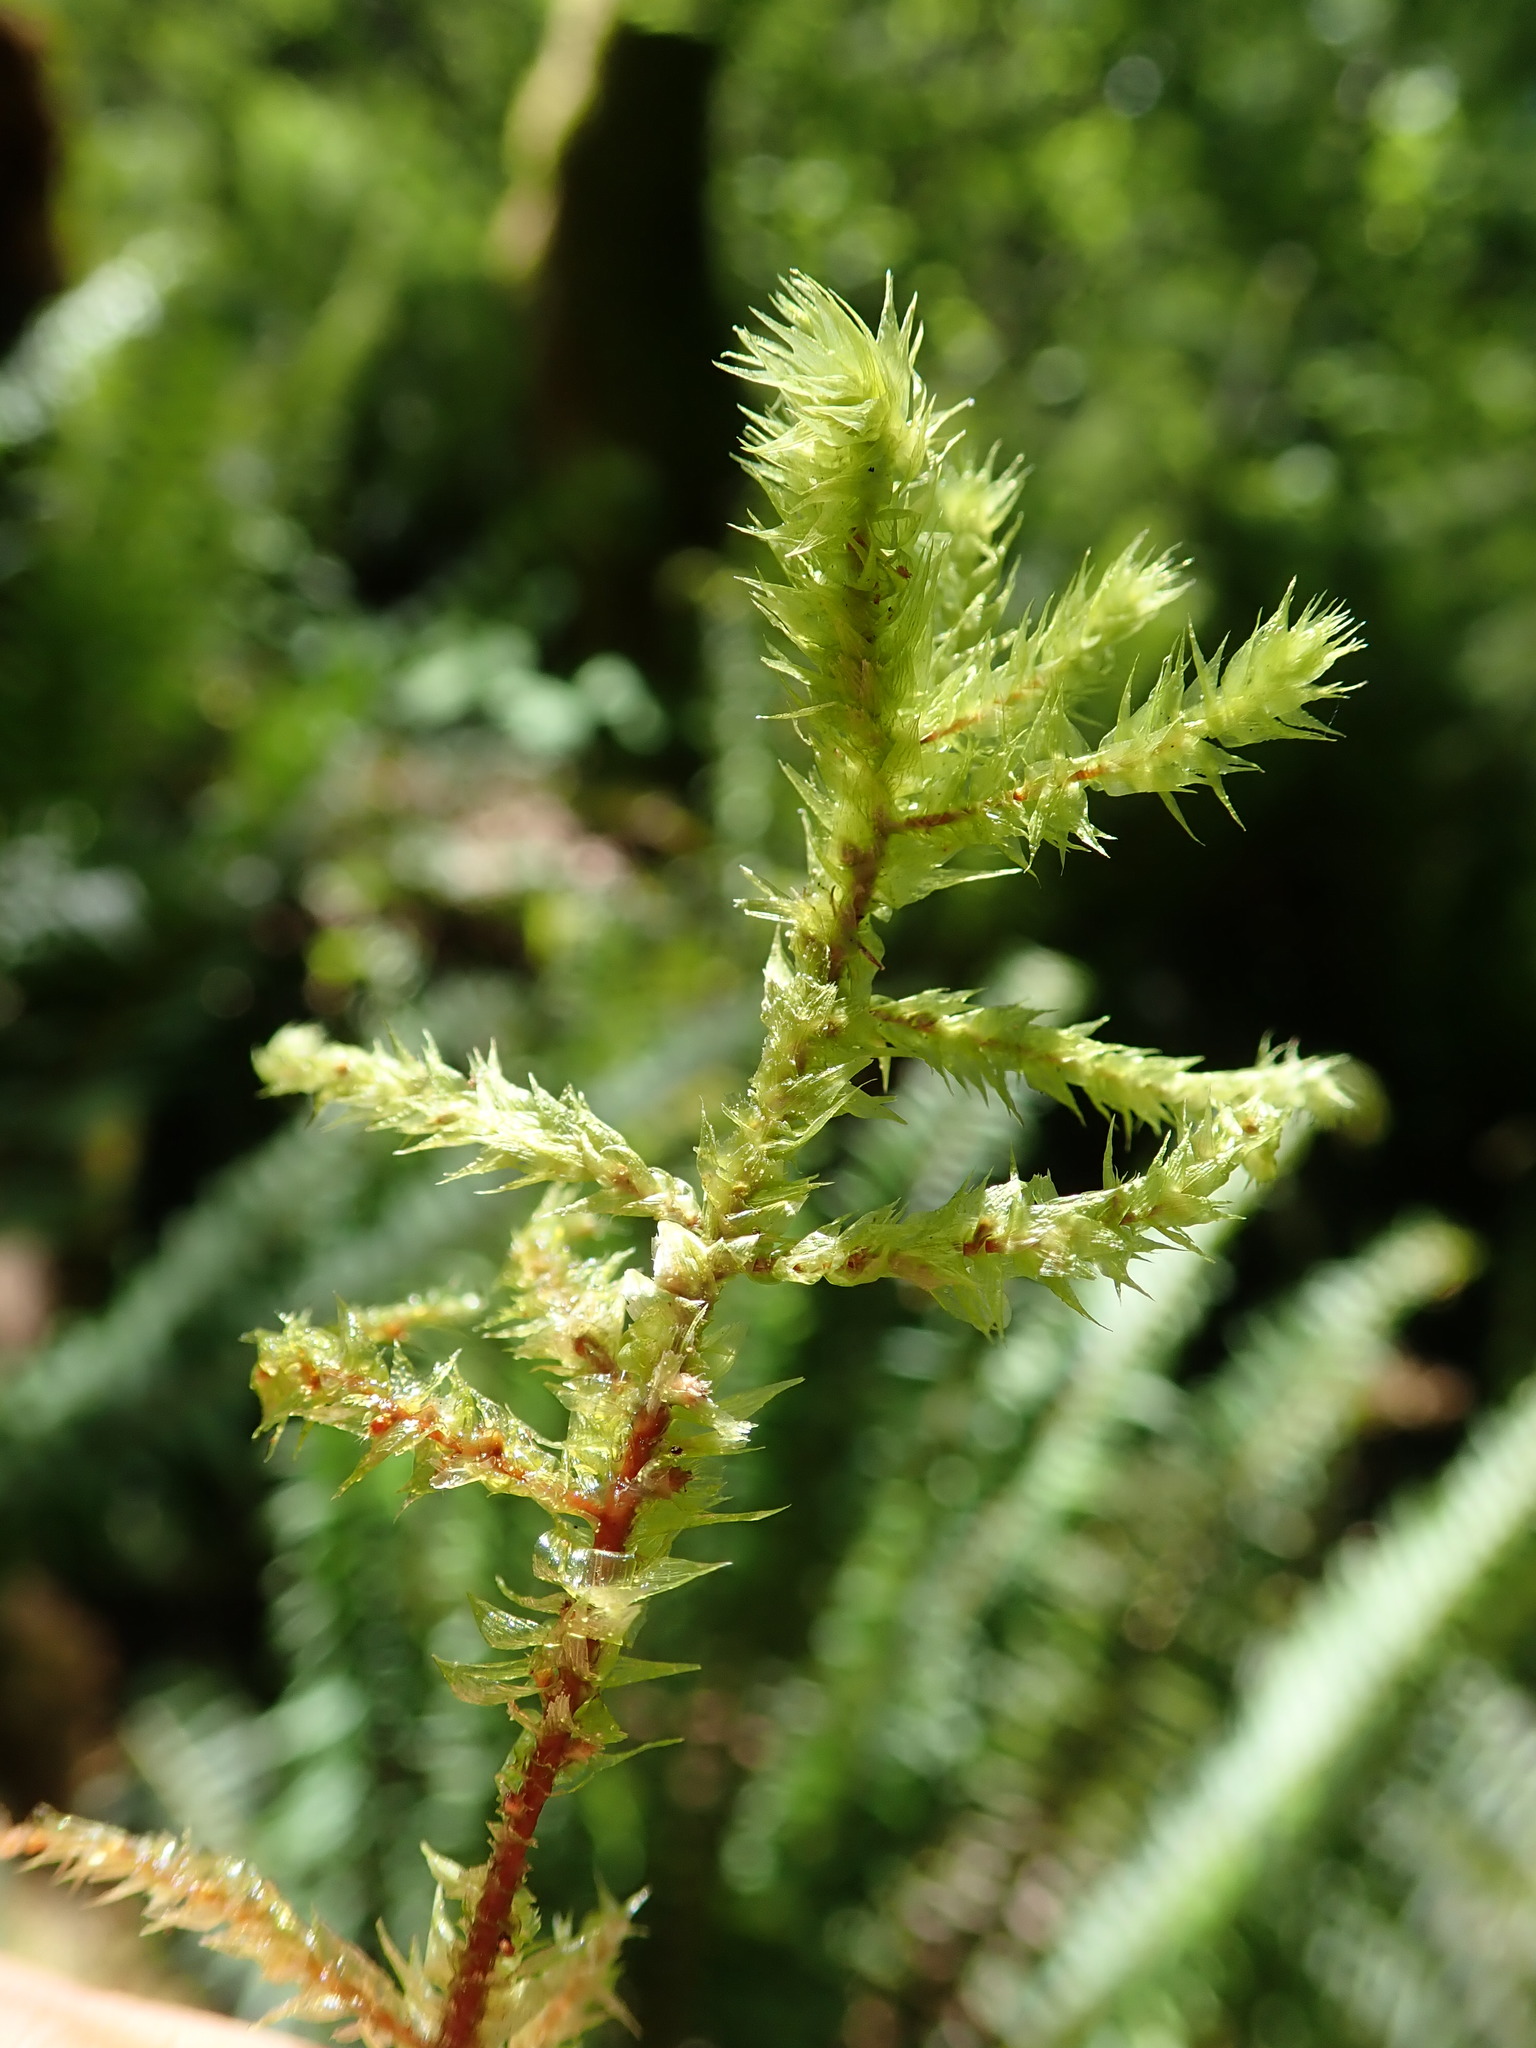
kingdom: Plantae
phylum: Bryophyta
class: Bryopsida
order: Hypnales
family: Hylocomiaceae
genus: Hylocomiadelphus
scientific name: Hylocomiadelphus triquetrus
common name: Rough goose neck moss
